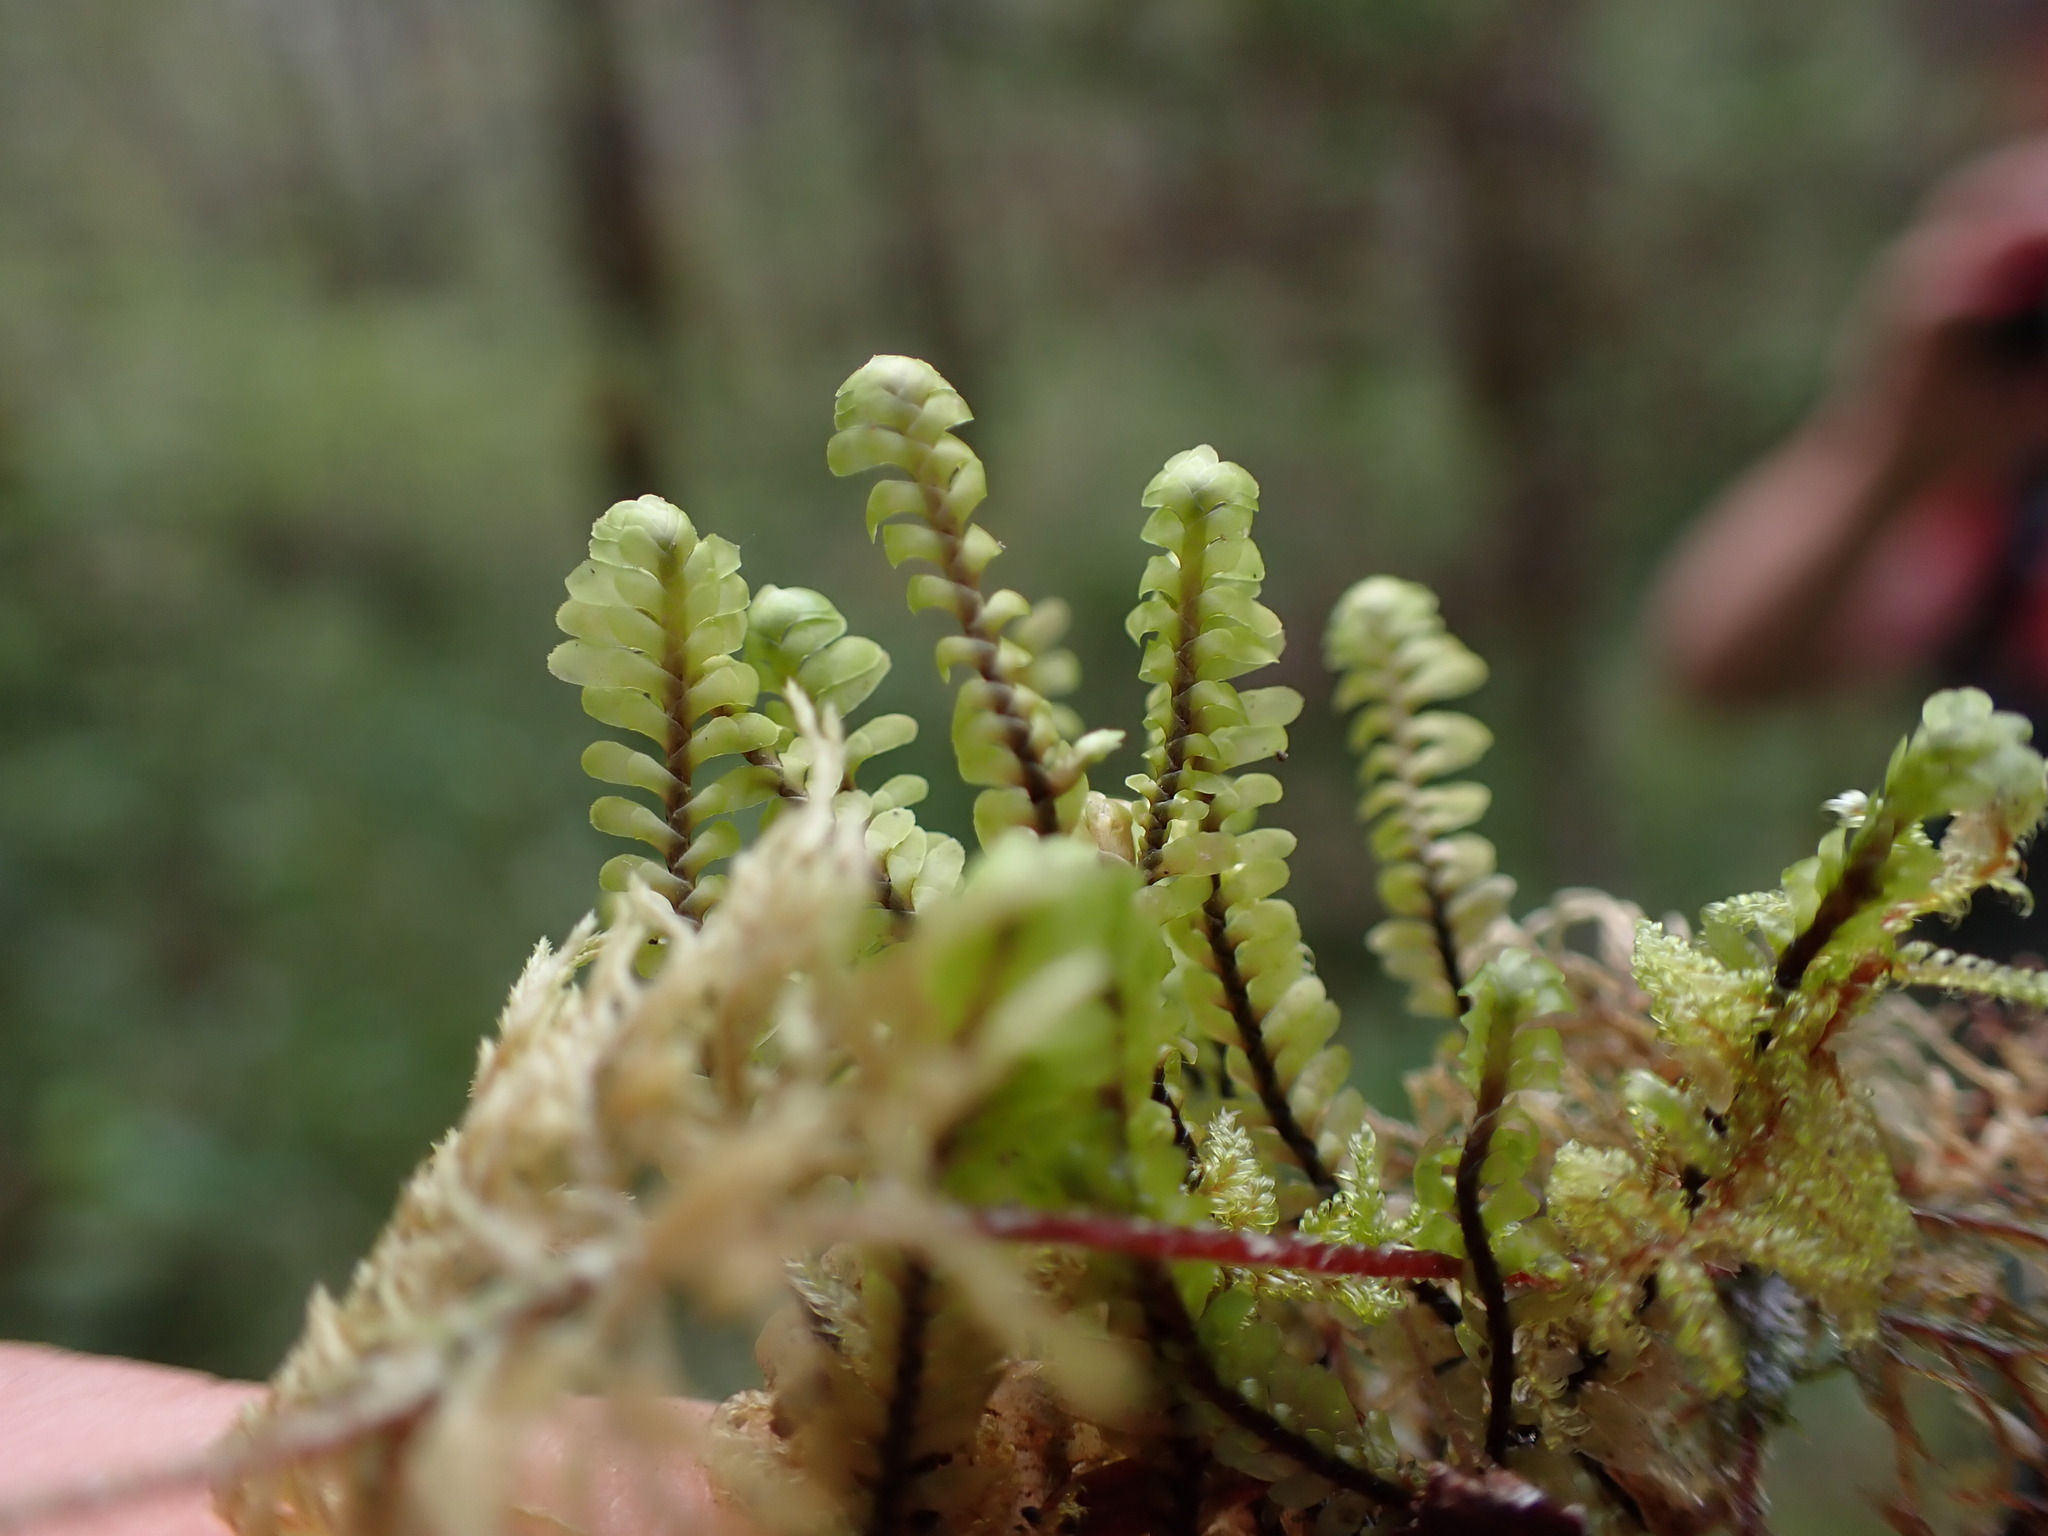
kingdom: Plantae
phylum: Marchantiophyta
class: Jungermanniopsida
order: Jungermanniales
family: Scapaniaceae
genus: Macrodiplophyllum
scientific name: Macrodiplophyllum rubrum
